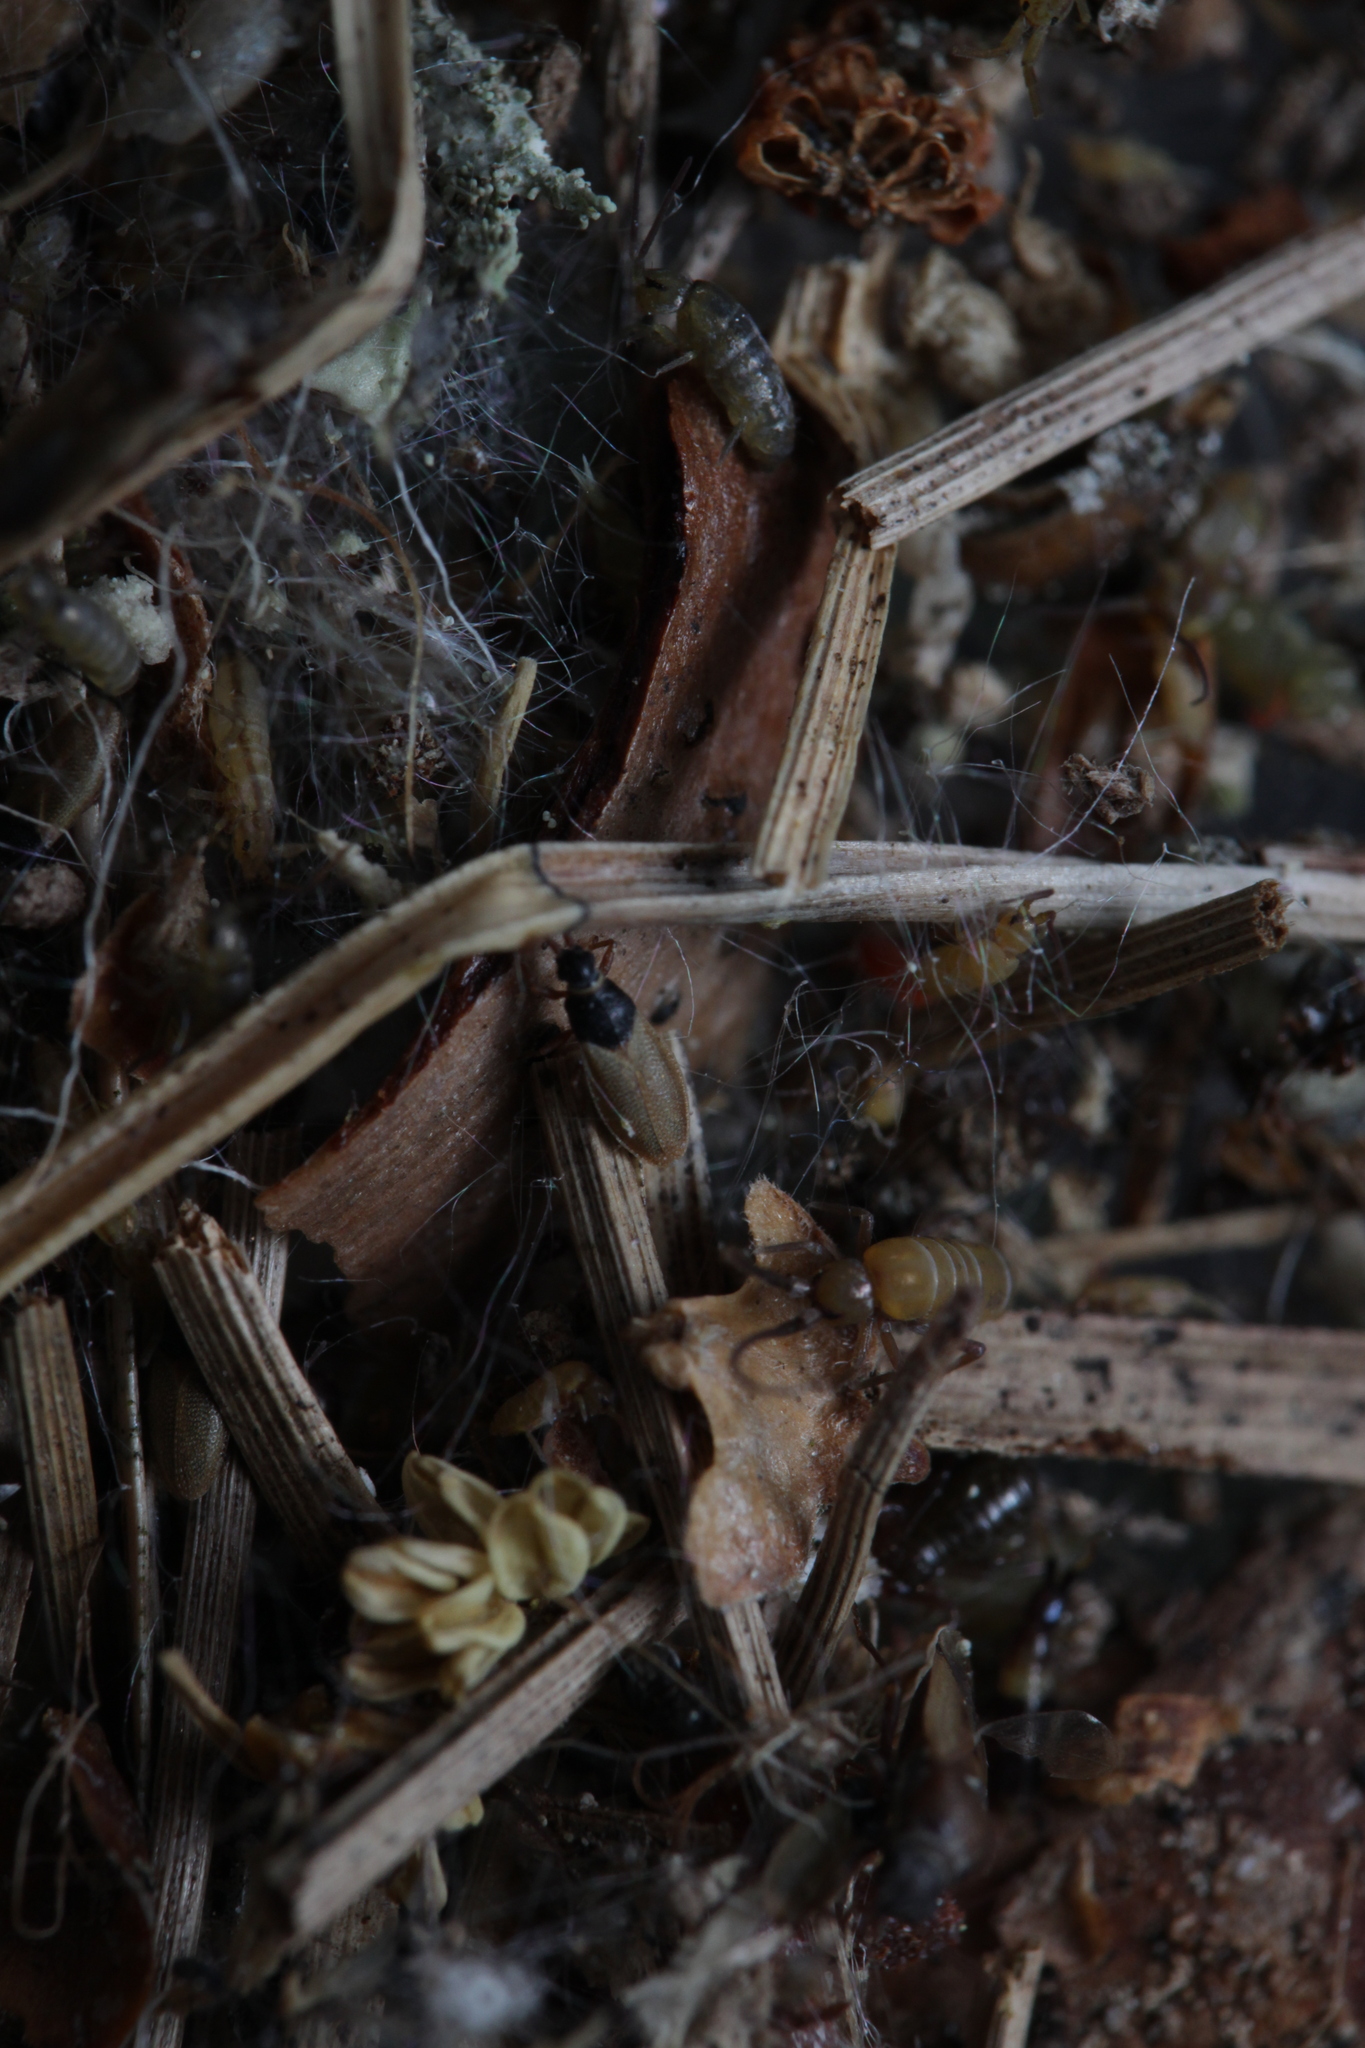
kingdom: Animalia
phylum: Arthropoda
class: Insecta
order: Hemiptera
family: Tingidae
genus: Agramma
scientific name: Agramma ruficorne
